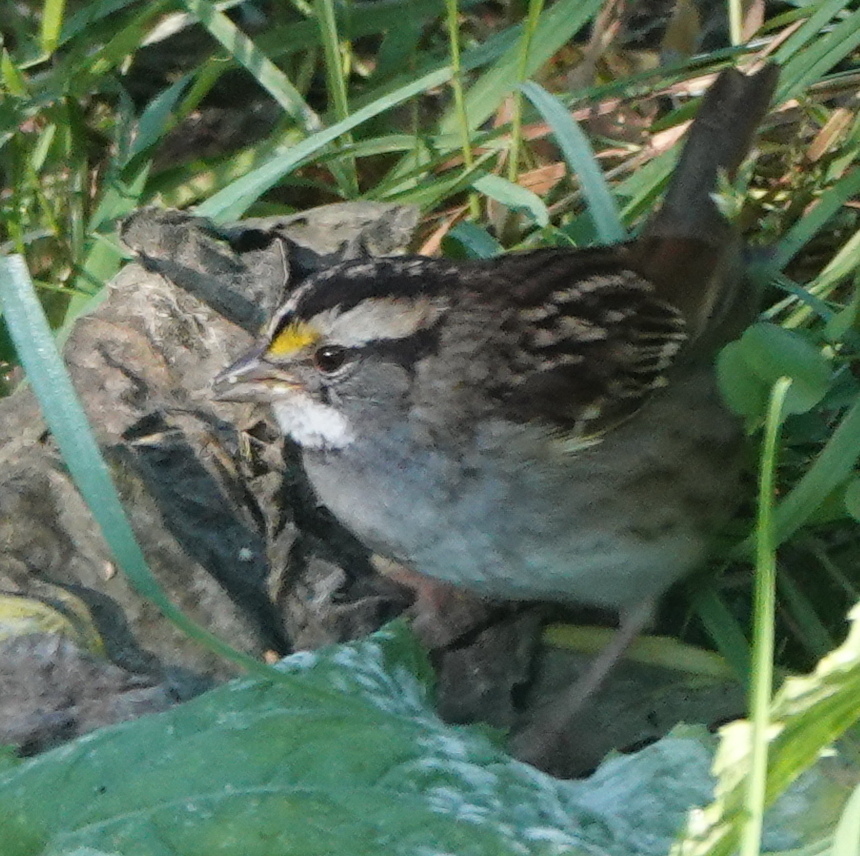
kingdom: Animalia
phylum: Chordata
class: Aves
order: Passeriformes
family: Passerellidae
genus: Zonotrichia
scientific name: Zonotrichia albicollis
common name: White-throated sparrow
